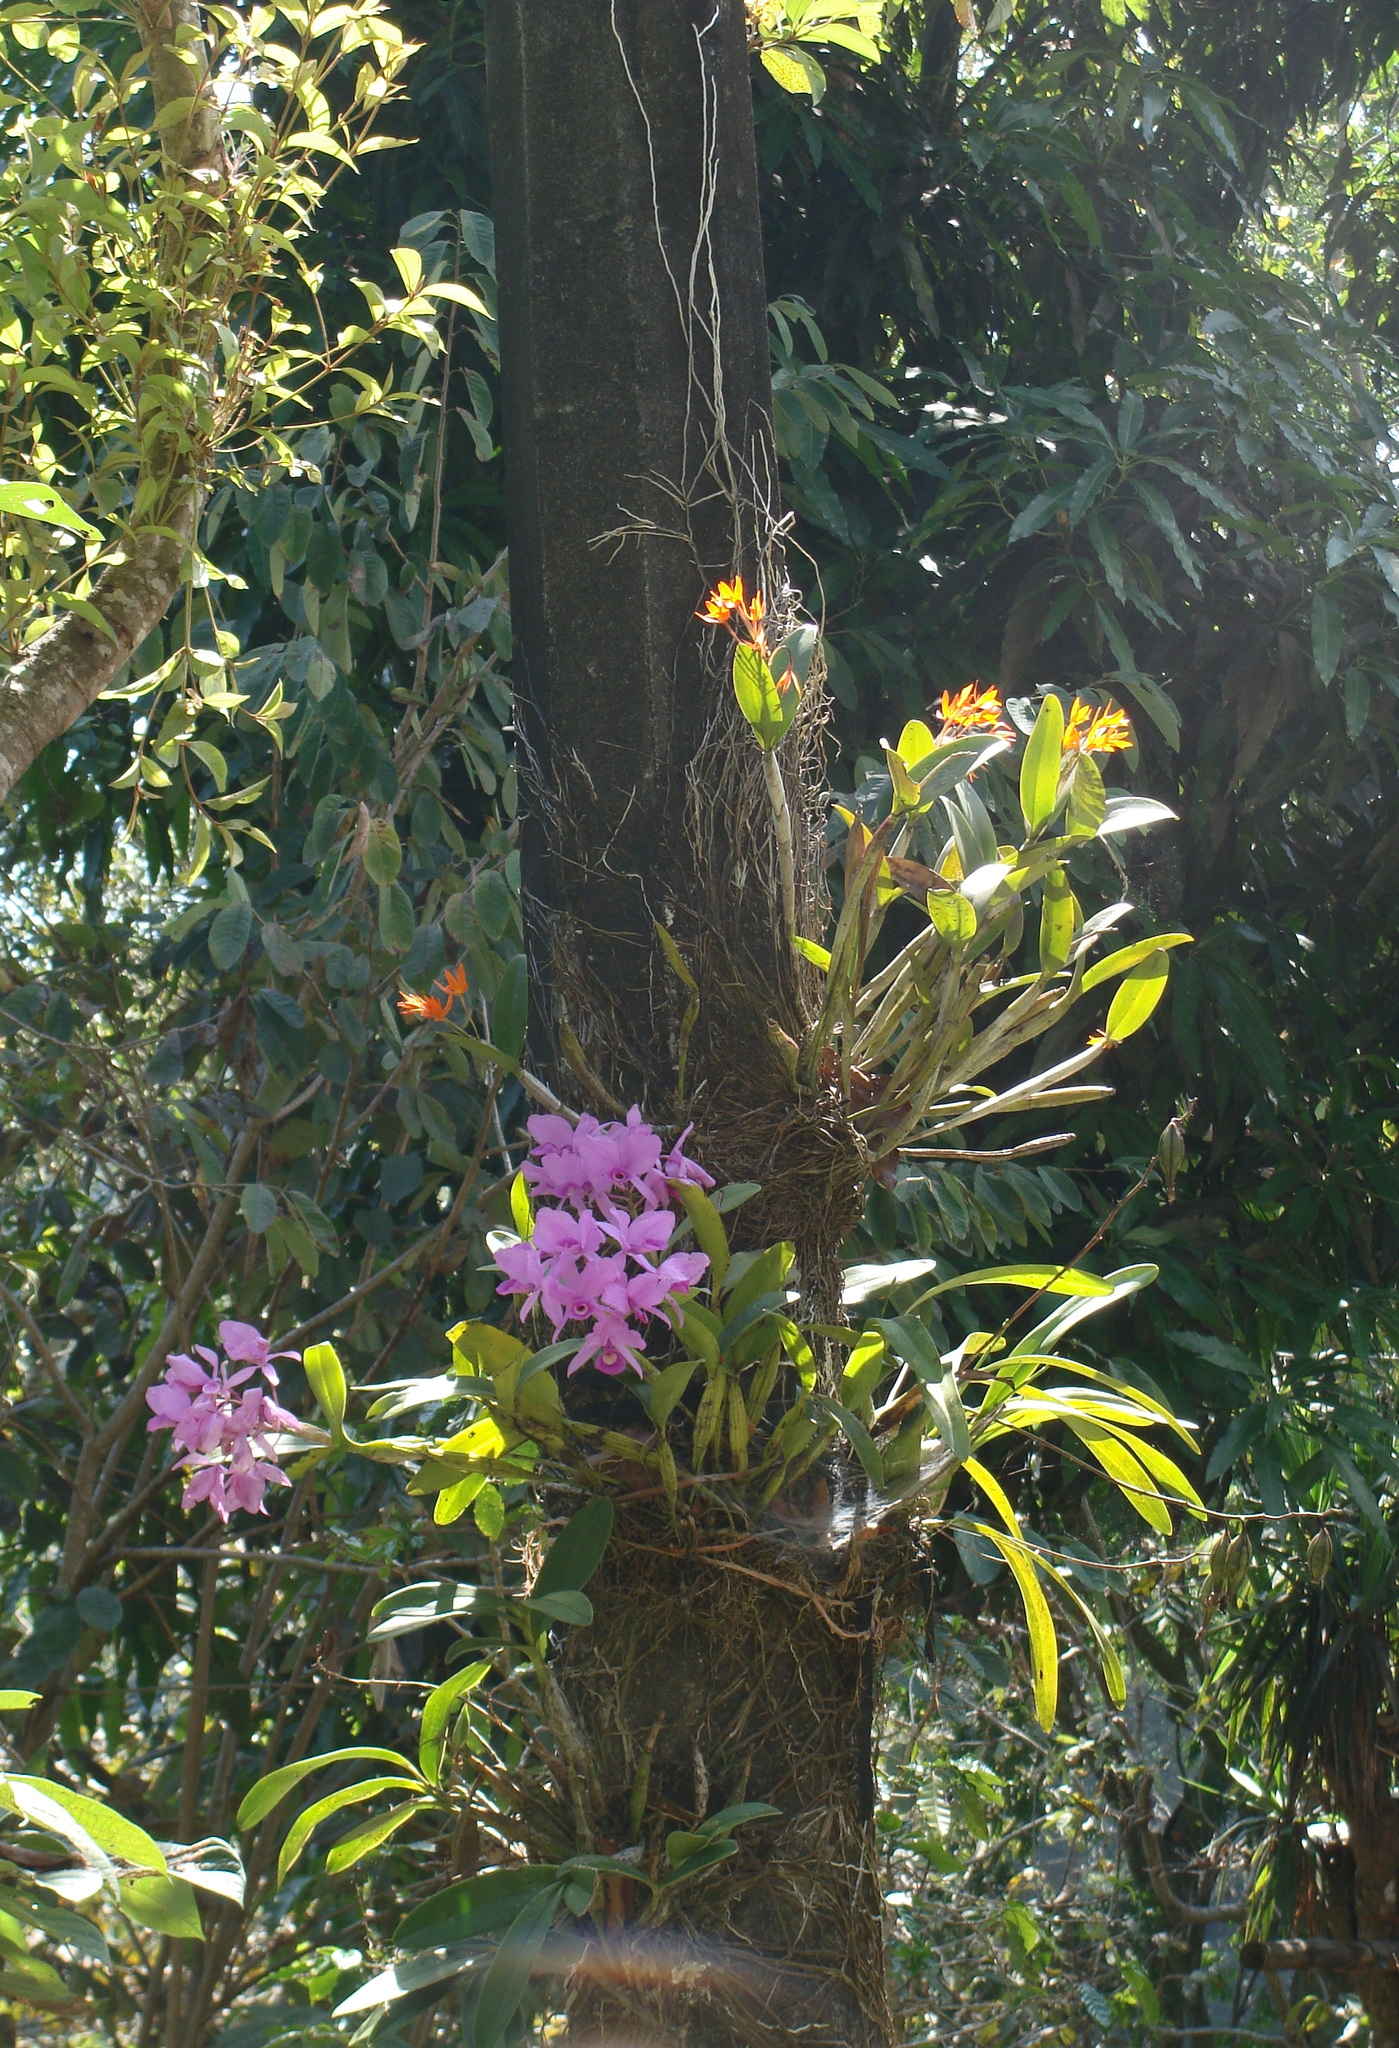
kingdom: Plantae
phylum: Tracheophyta
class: Liliopsida
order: Asparagales
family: Orchidaceae
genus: Guarianthe
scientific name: Guarianthe skinneri
